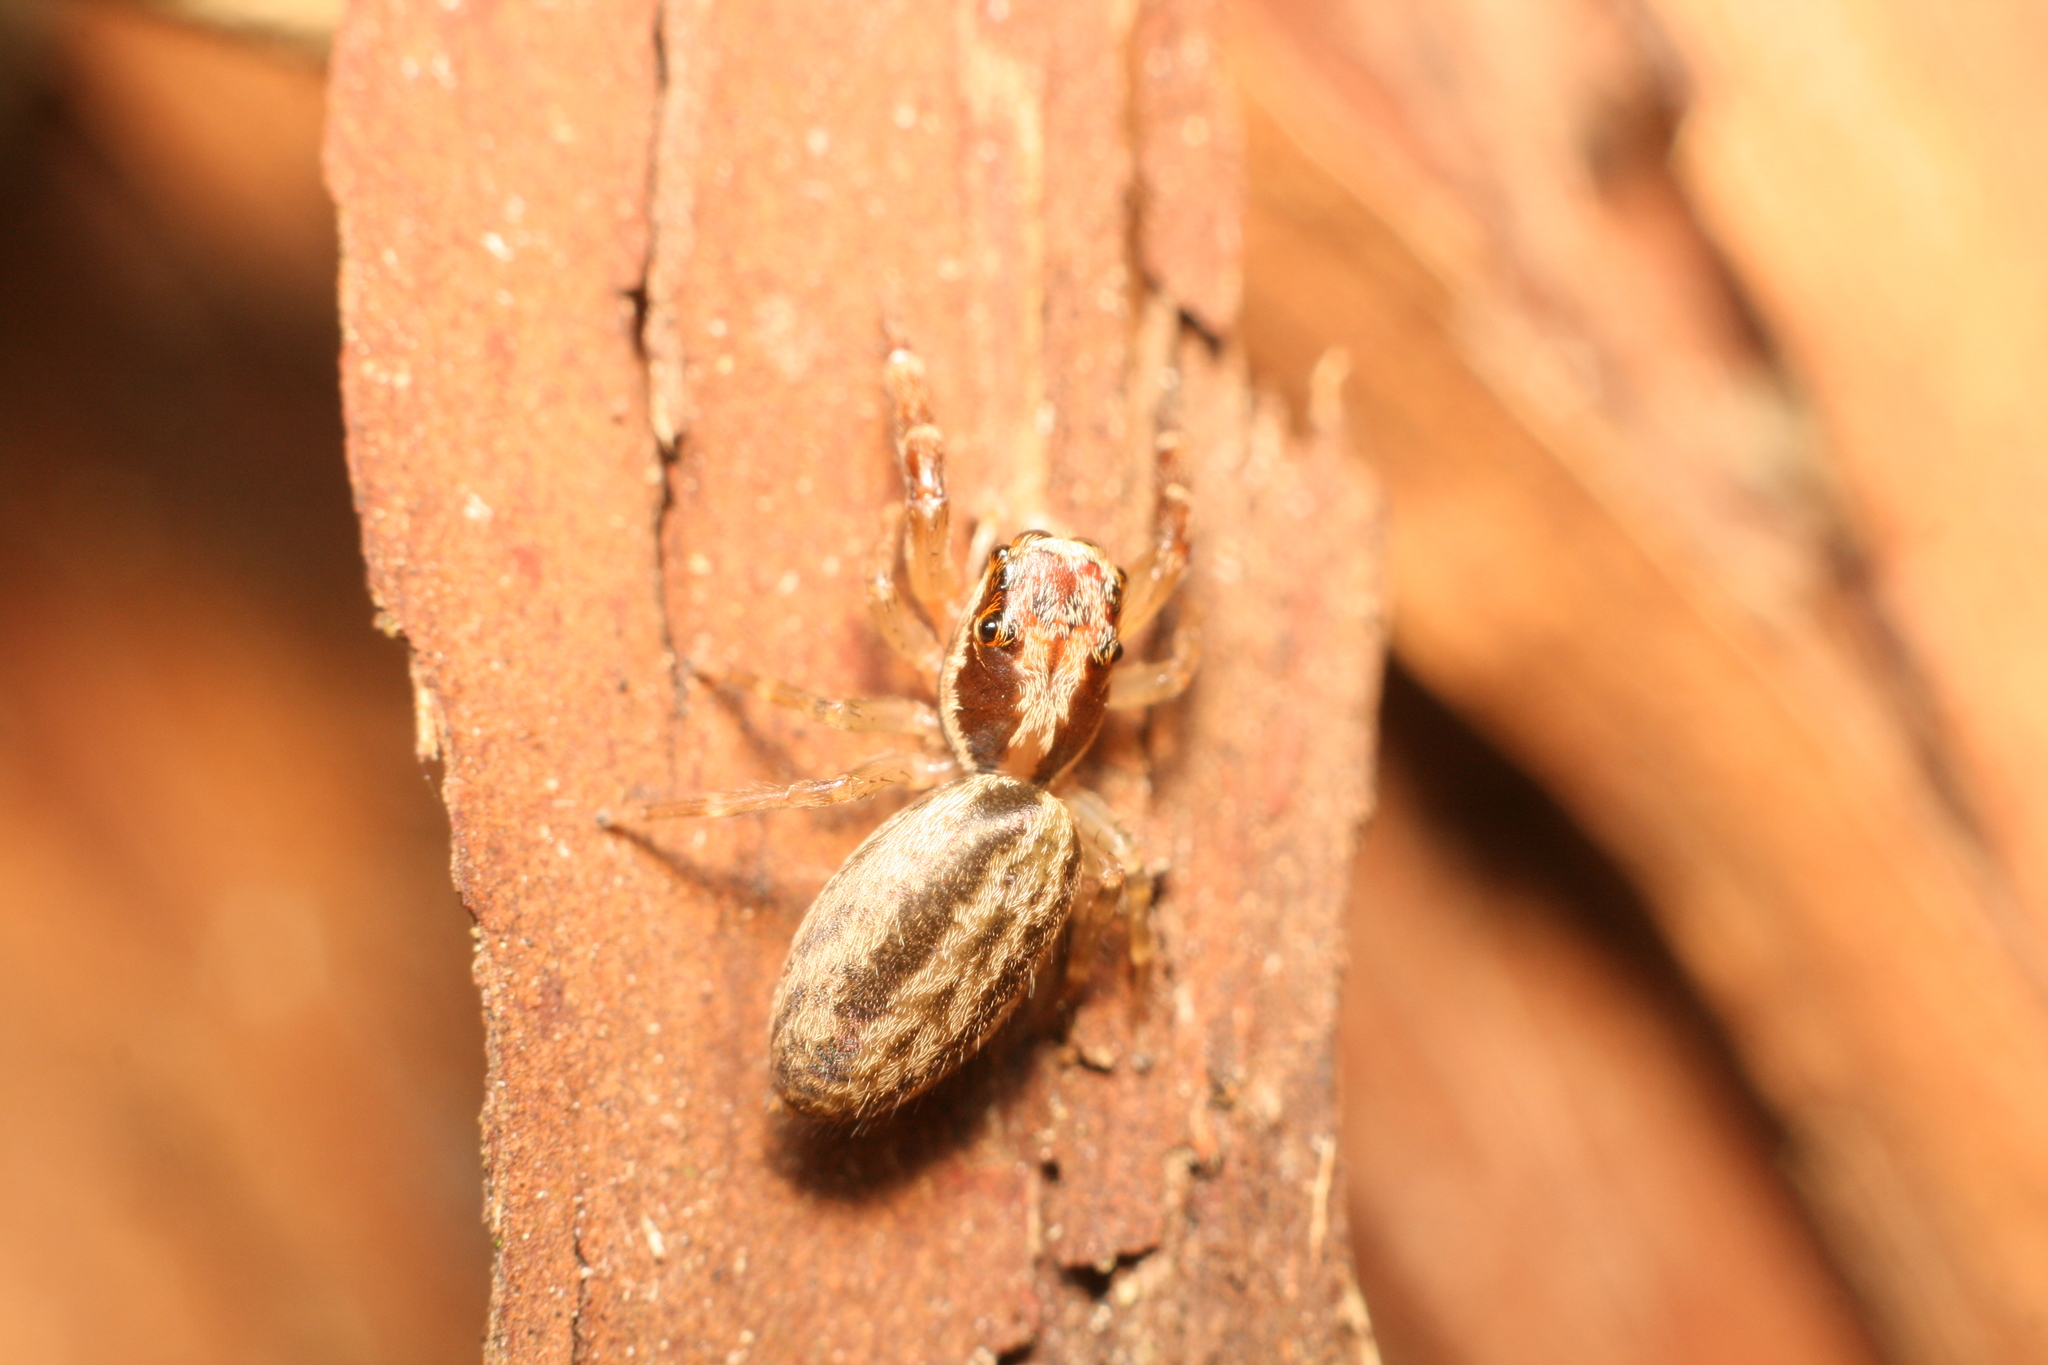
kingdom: Animalia
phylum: Arthropoda
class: Arachnida
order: Araneae
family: Salticidae
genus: Trite
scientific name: Trite mustilina
